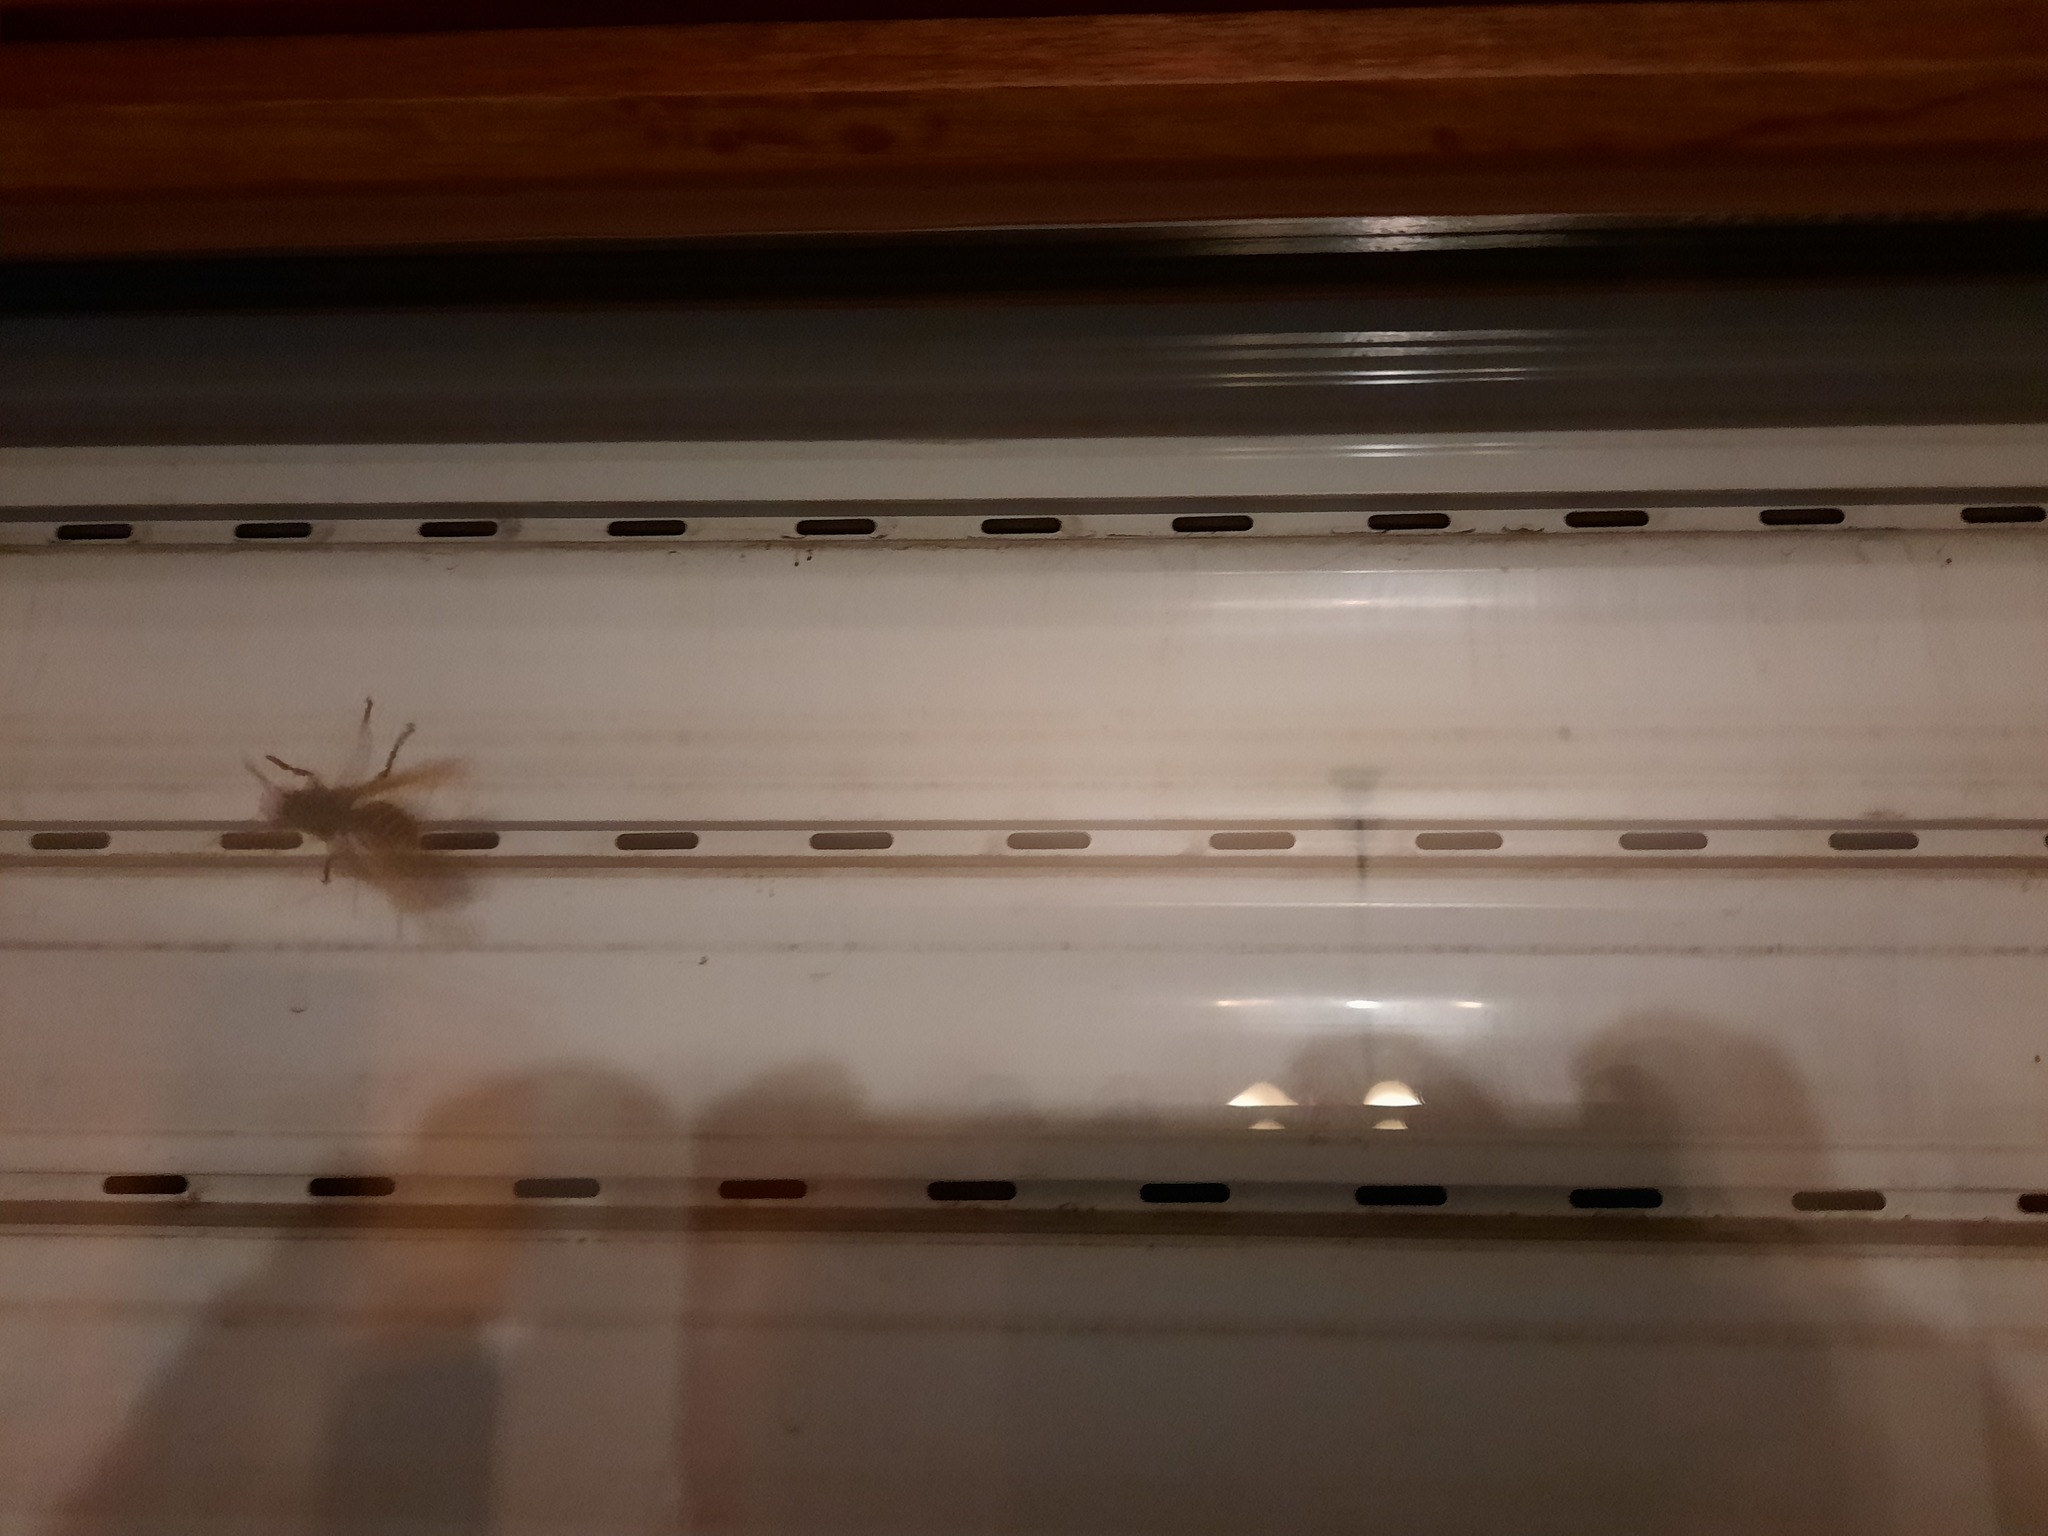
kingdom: Animalia
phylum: Arthropoda
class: Insecta
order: Hymenoptera
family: Vespidae
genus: Vespa
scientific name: Vespa crabro
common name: Hornet
